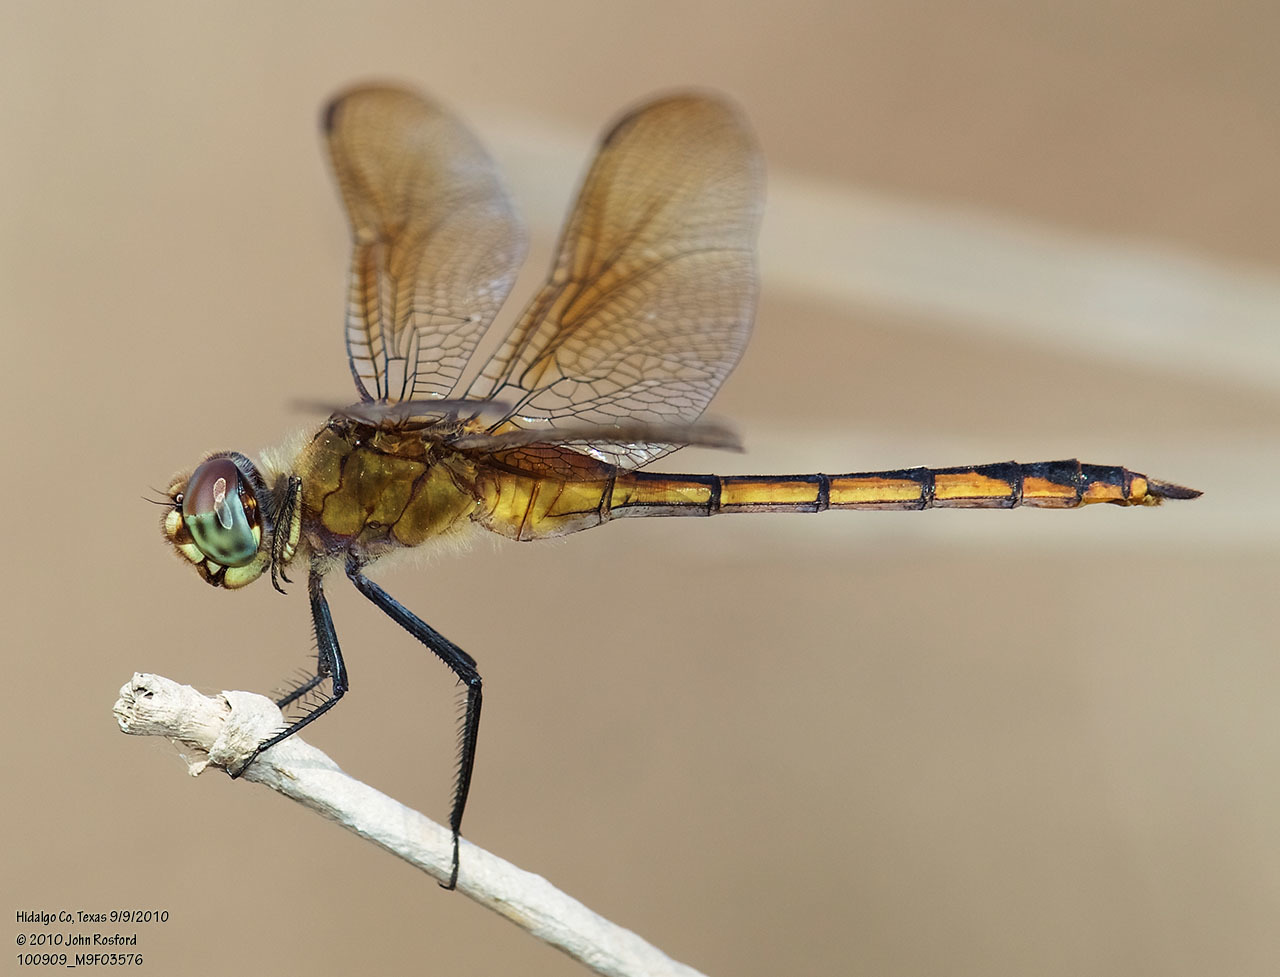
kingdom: Animalia
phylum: Arthropoda
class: Insecta
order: Odonata
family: Libellulidae
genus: Brachymesia
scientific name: Brachymesia herbida
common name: Tawny pennant
